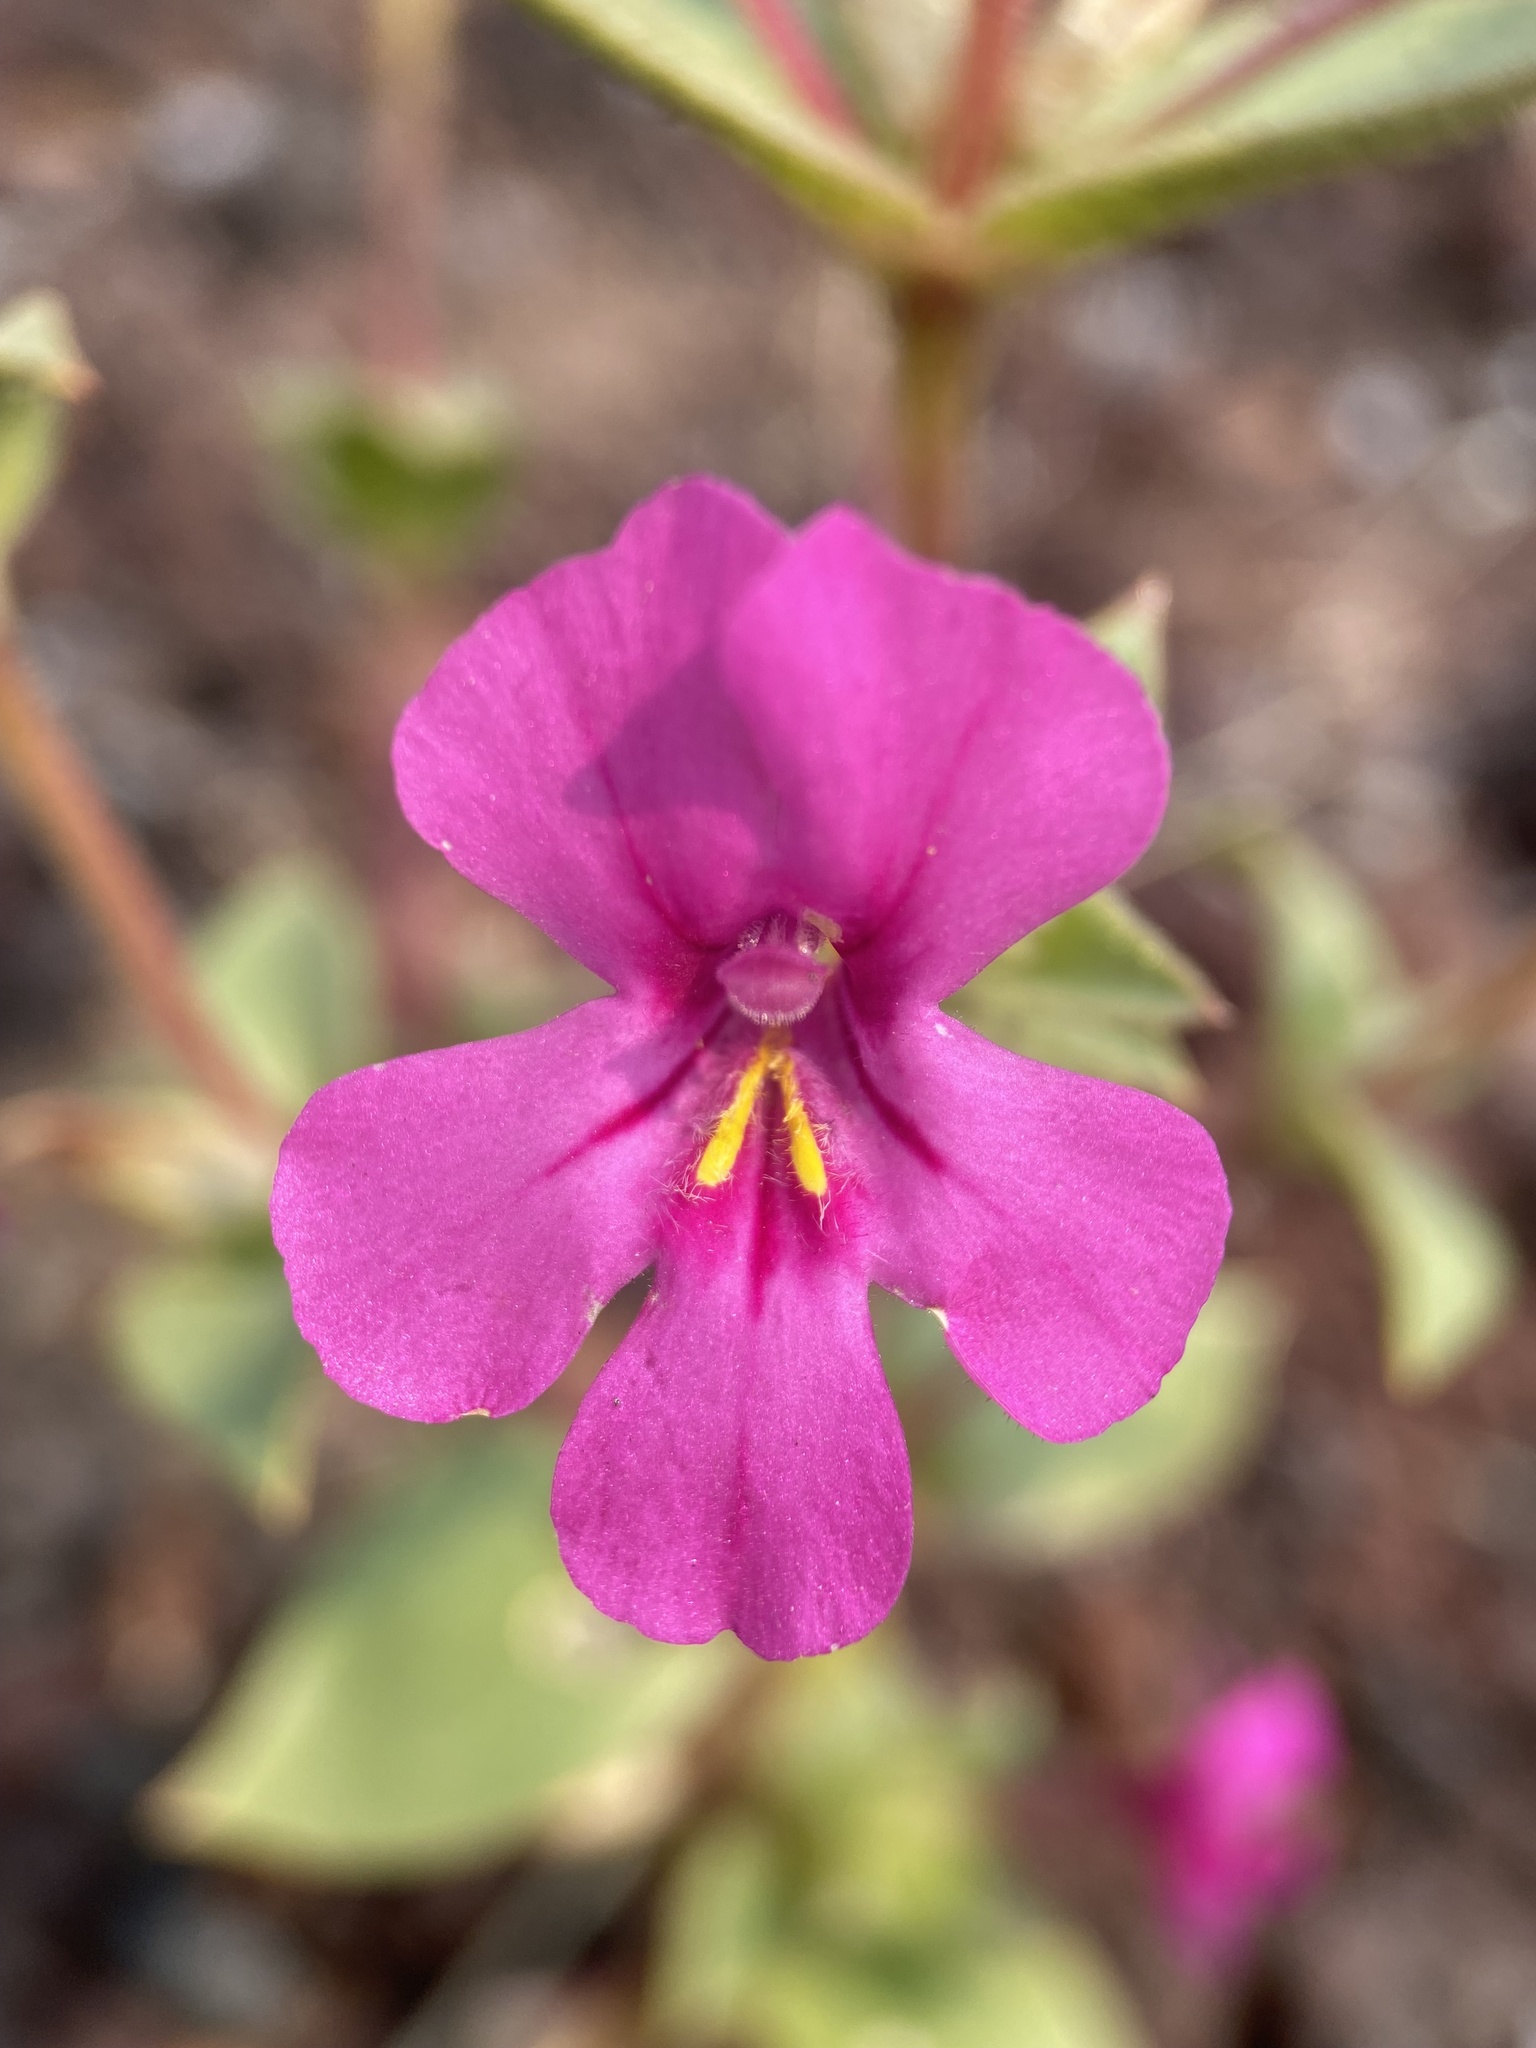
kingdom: Plantae
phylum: Tracheophyta
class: Magnoliopsida
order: Lamiales
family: Phrymaceae
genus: Diplacus
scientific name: Diplacus cusickioides
